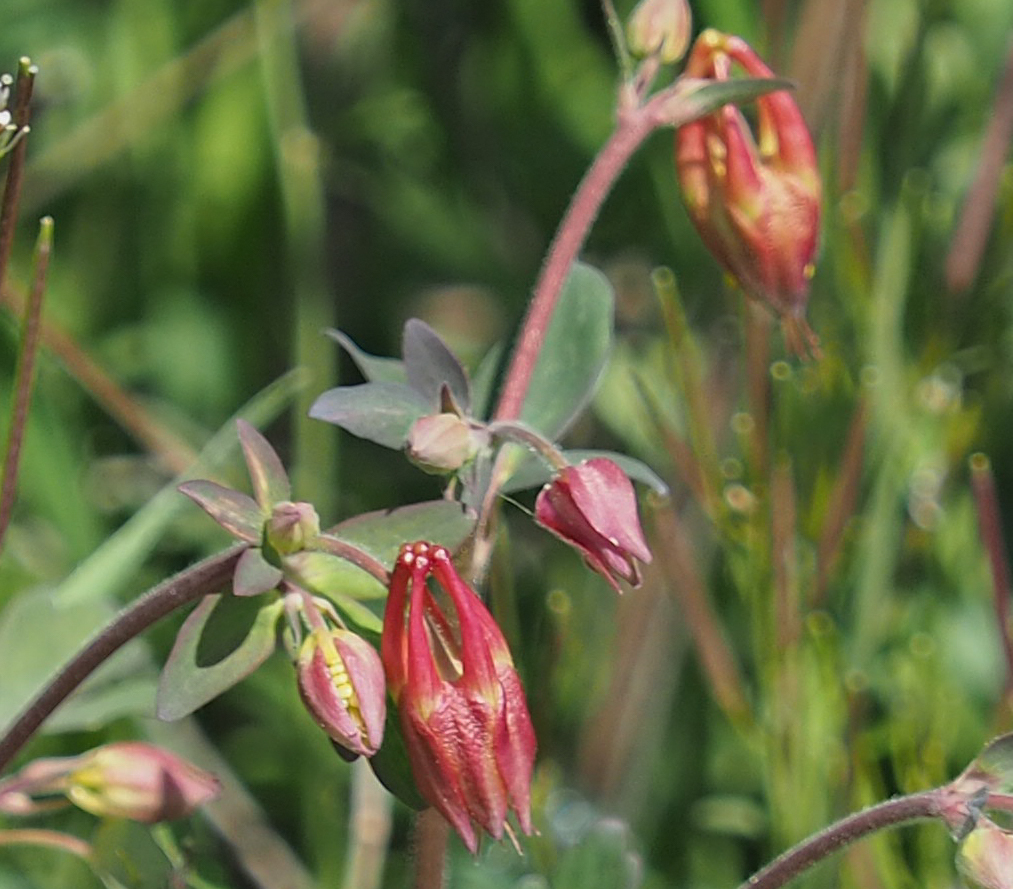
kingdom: Plantae
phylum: Tracheophyta
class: Magnoliopsida
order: Ranunculales
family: Ranunculaceae
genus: Aquilegia
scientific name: Aquilegia canadensis
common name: American columbine
